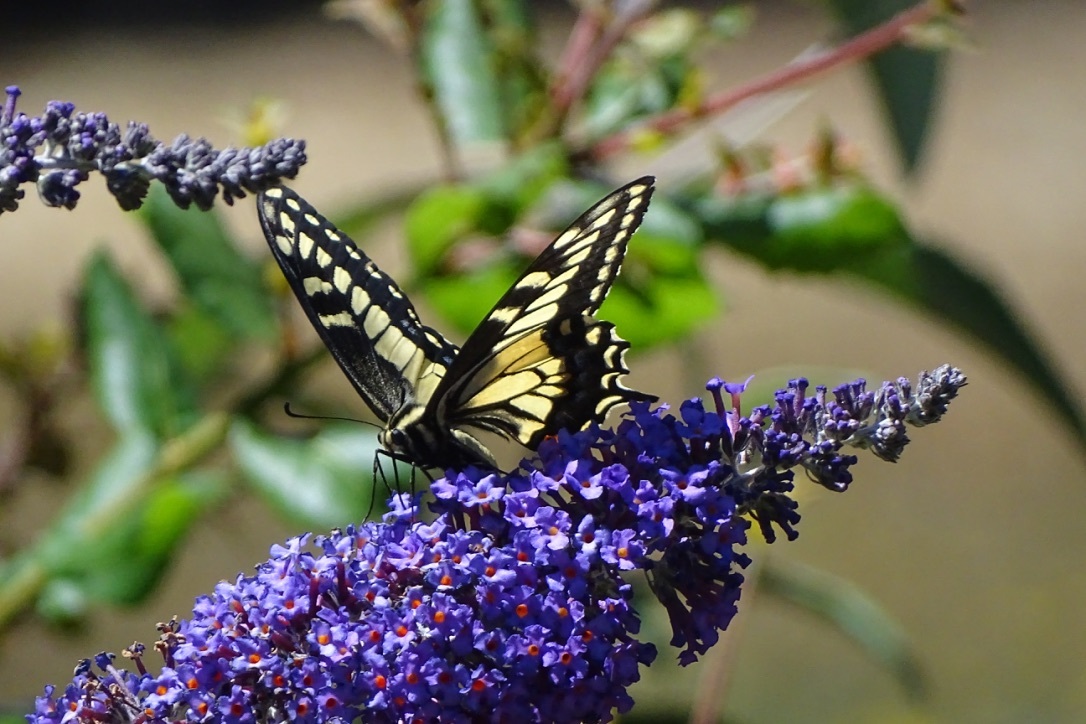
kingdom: Animalia
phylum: Arthropoda
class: Insecta
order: Lepidoptera
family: Papilionidae
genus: Papilio
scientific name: Papilio zelicaon
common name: Anise swallowtail
